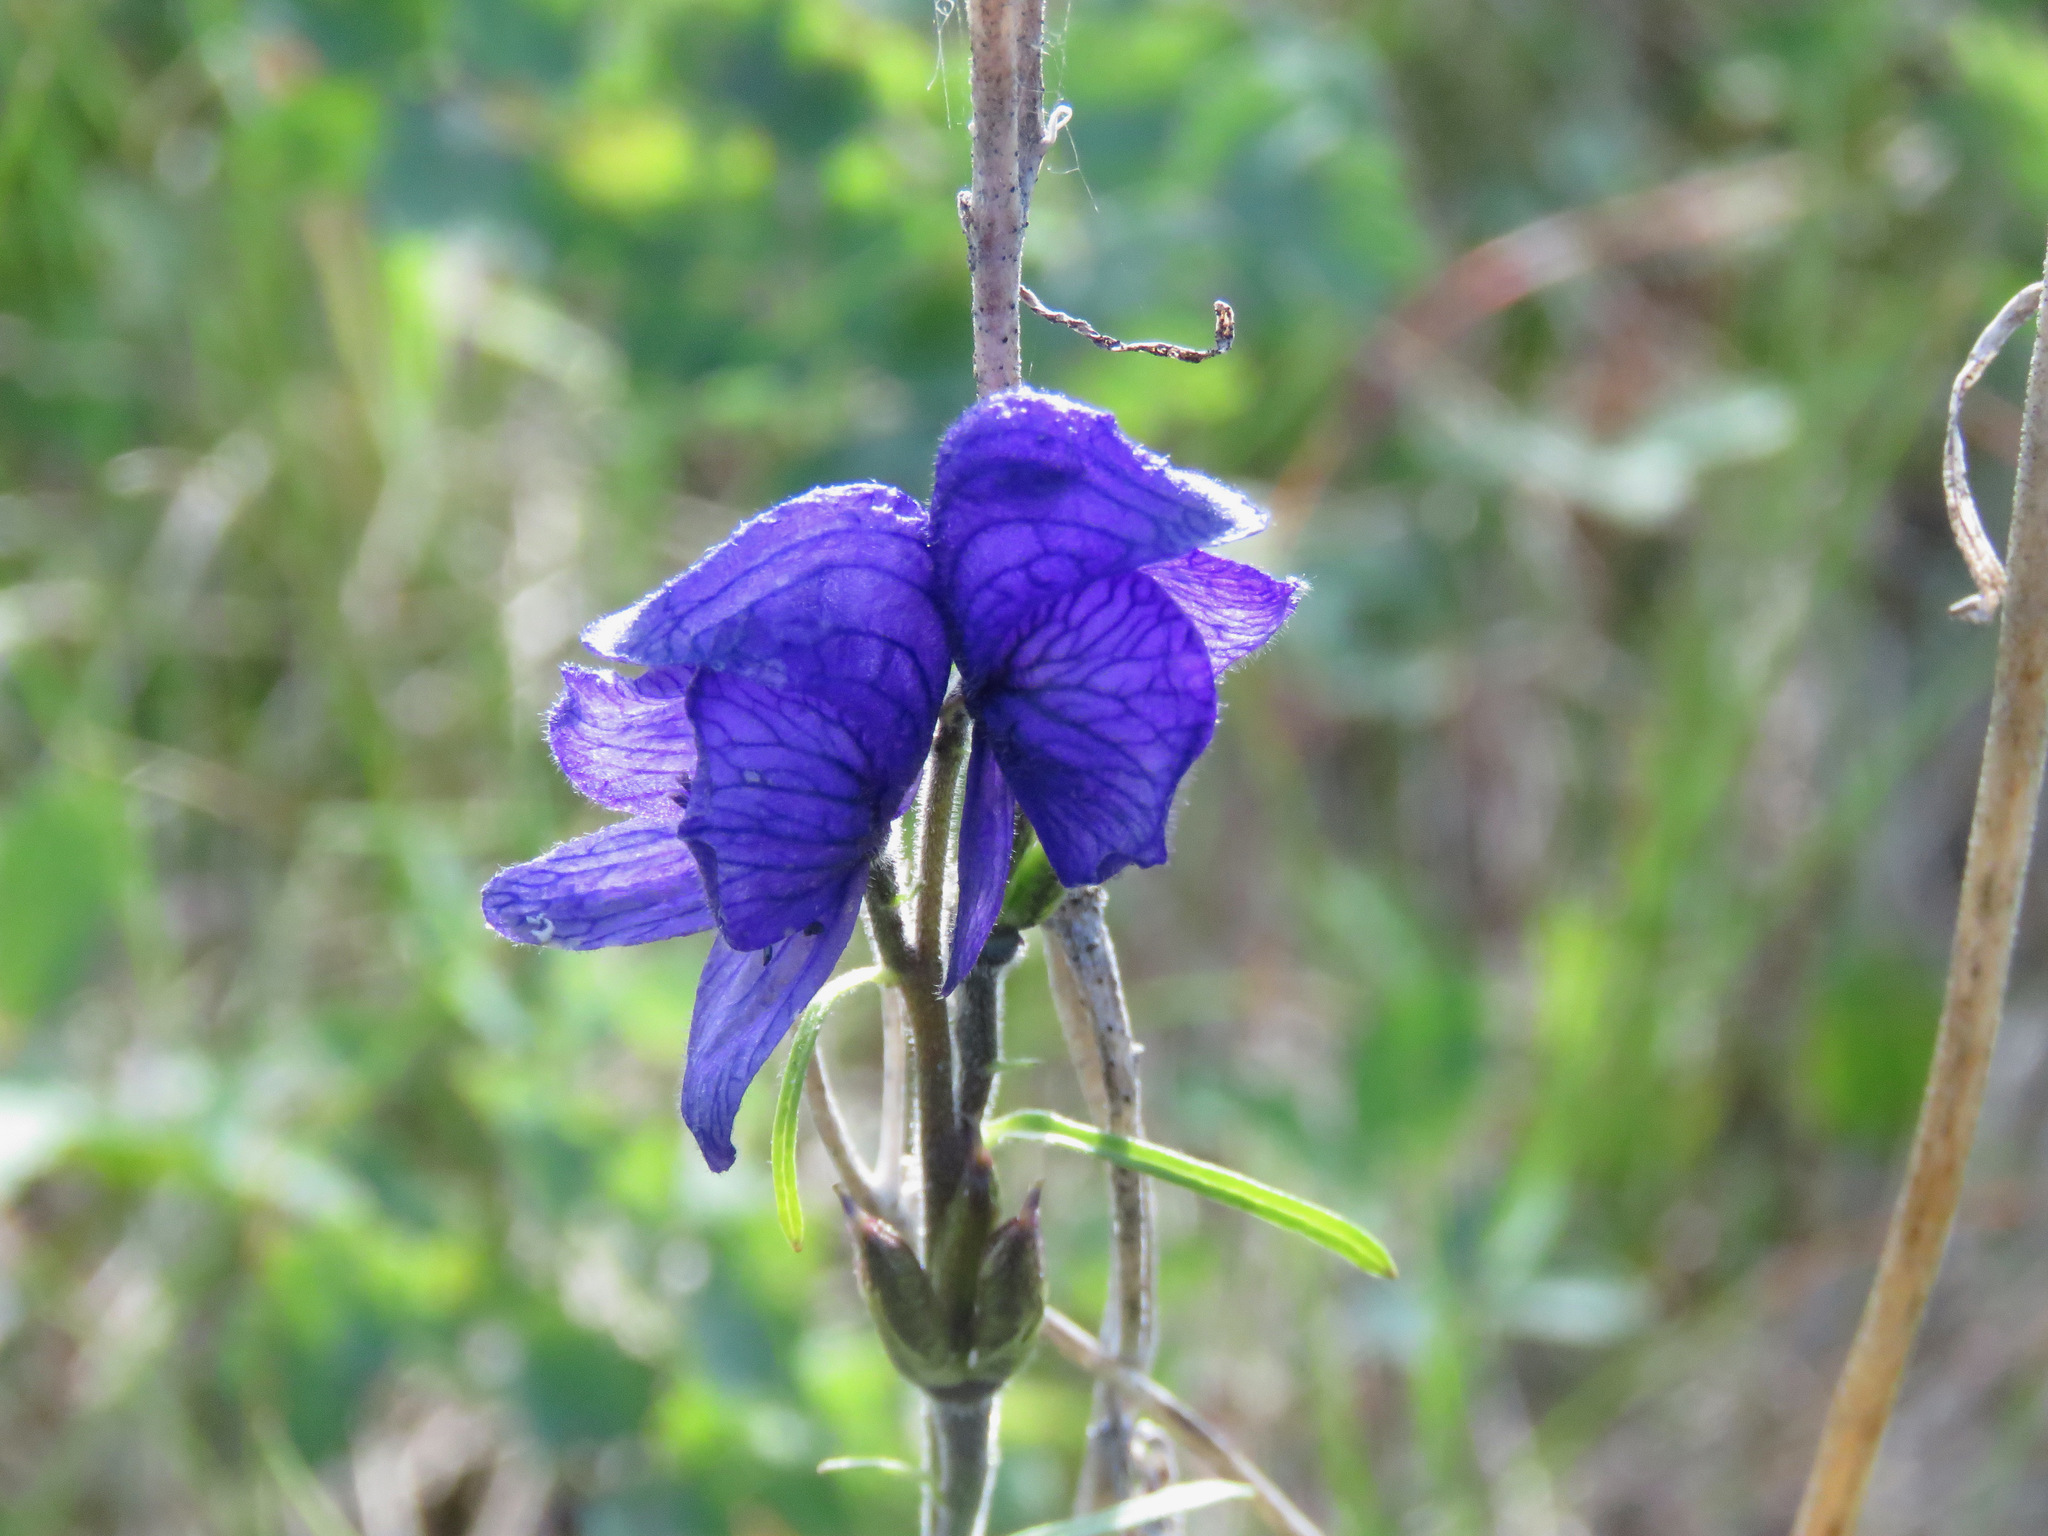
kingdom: Plantae
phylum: Tracheophyta
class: Magnoliopsida
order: Ranunculales
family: Ranunculaceae
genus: Aconitum
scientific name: Aconitum delphiniifolium
